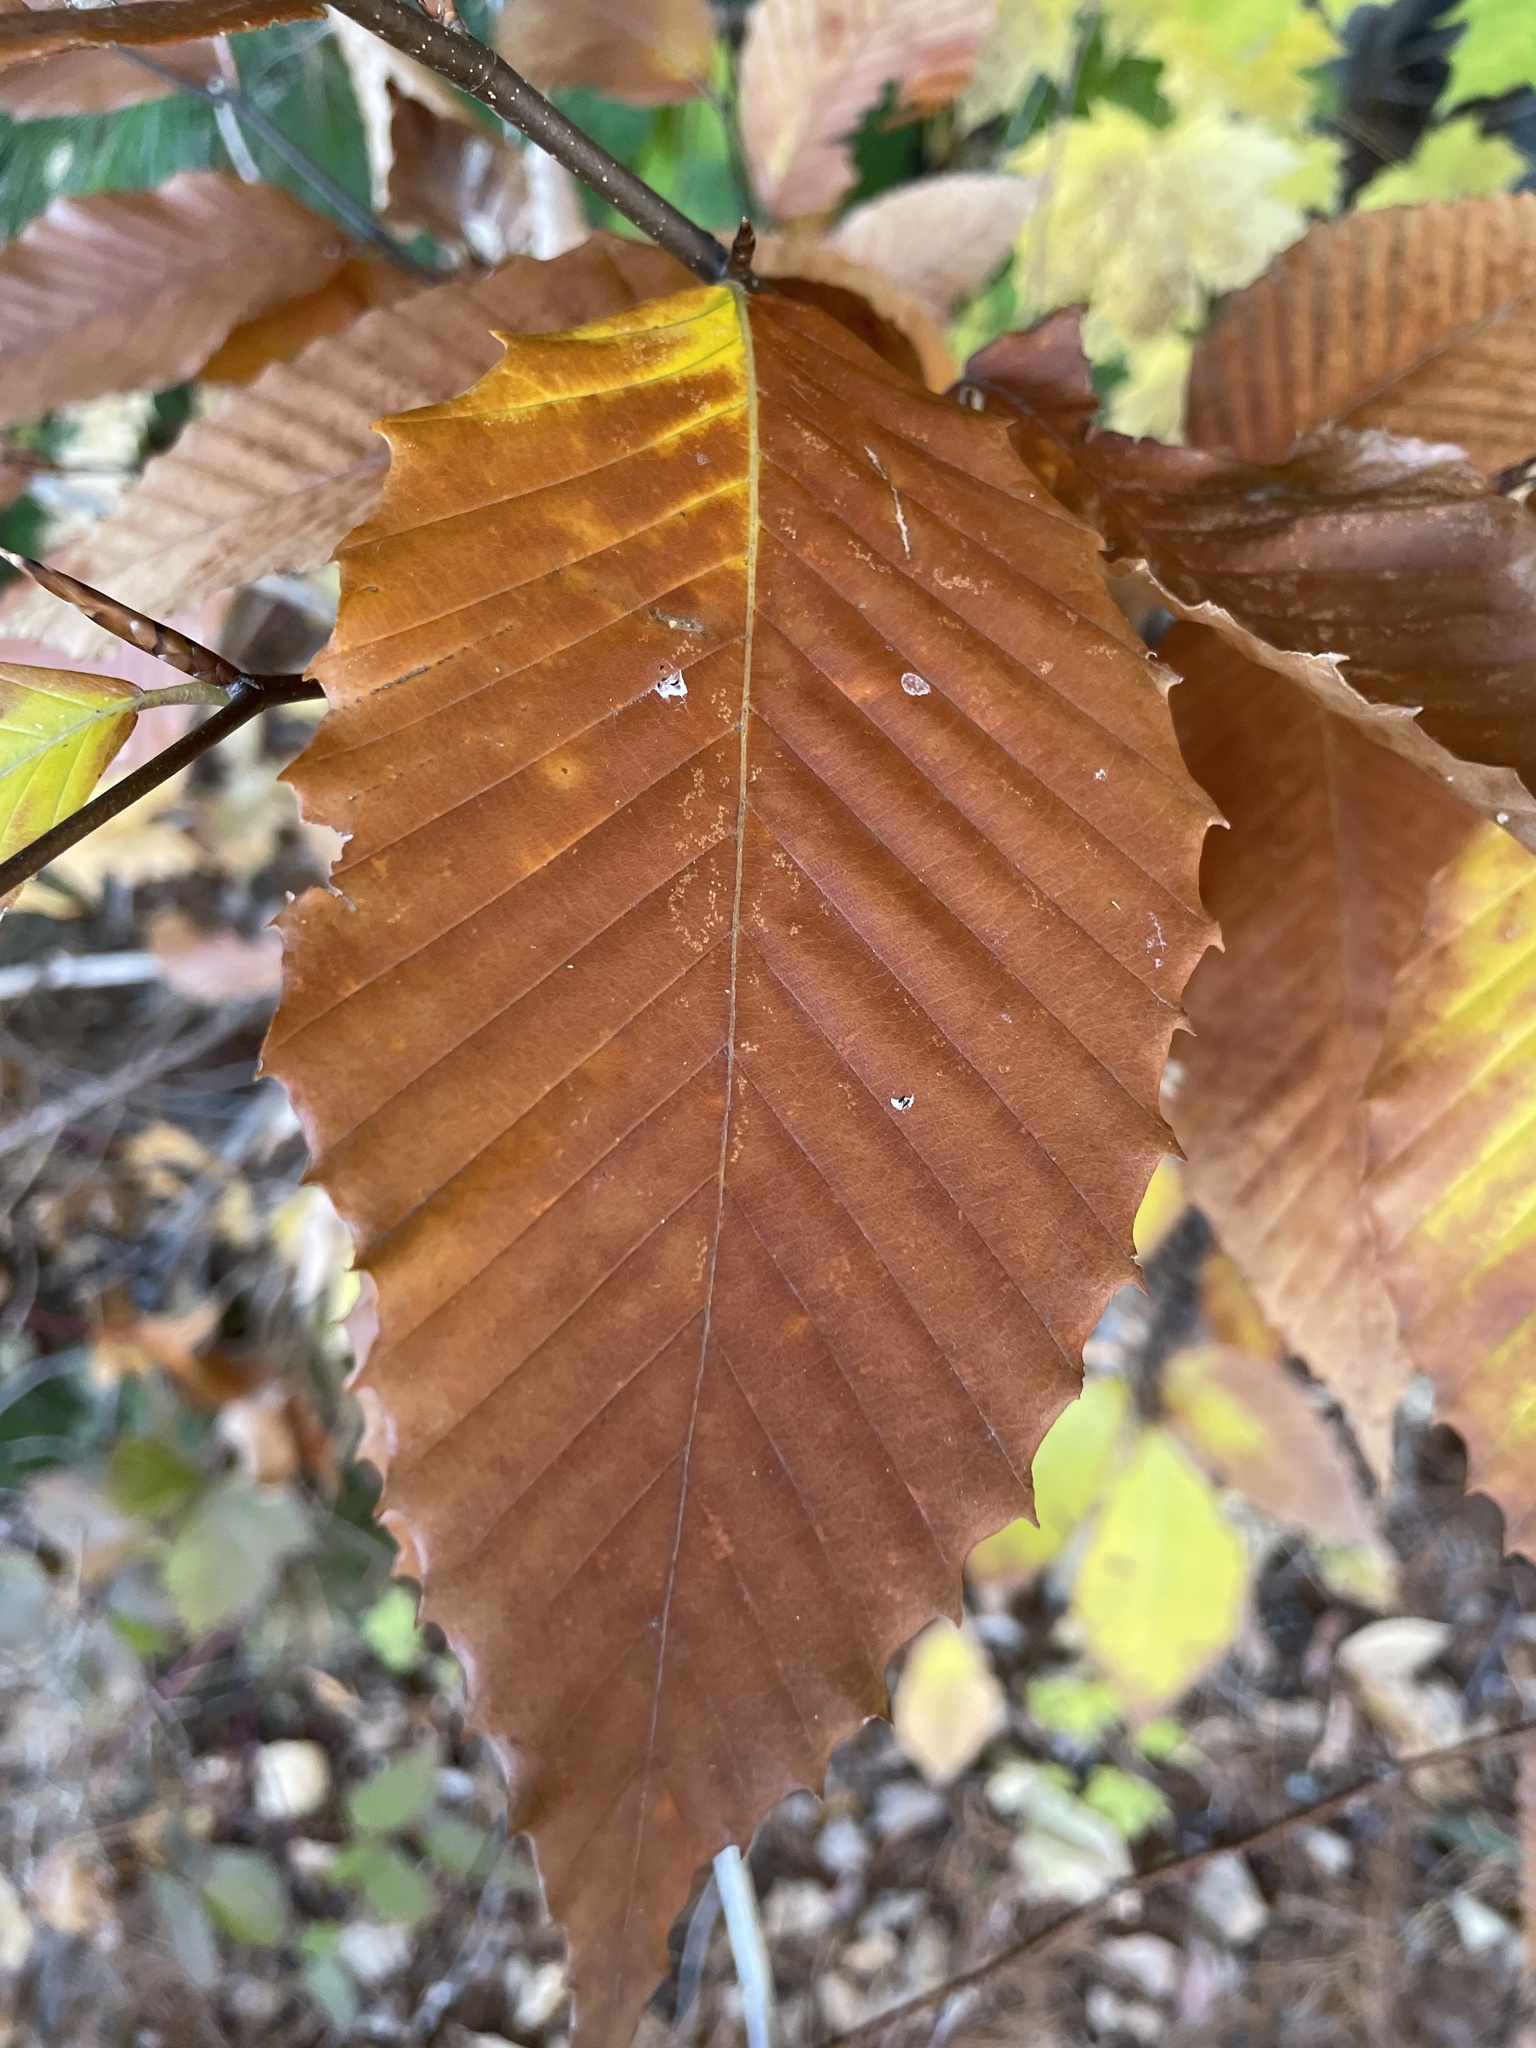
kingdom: Plantae
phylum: Tracheophyta
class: Magnoliopsida
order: Fagales
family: Fagaceae
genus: Fagus
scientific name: Fagus grandifolia
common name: American beech
